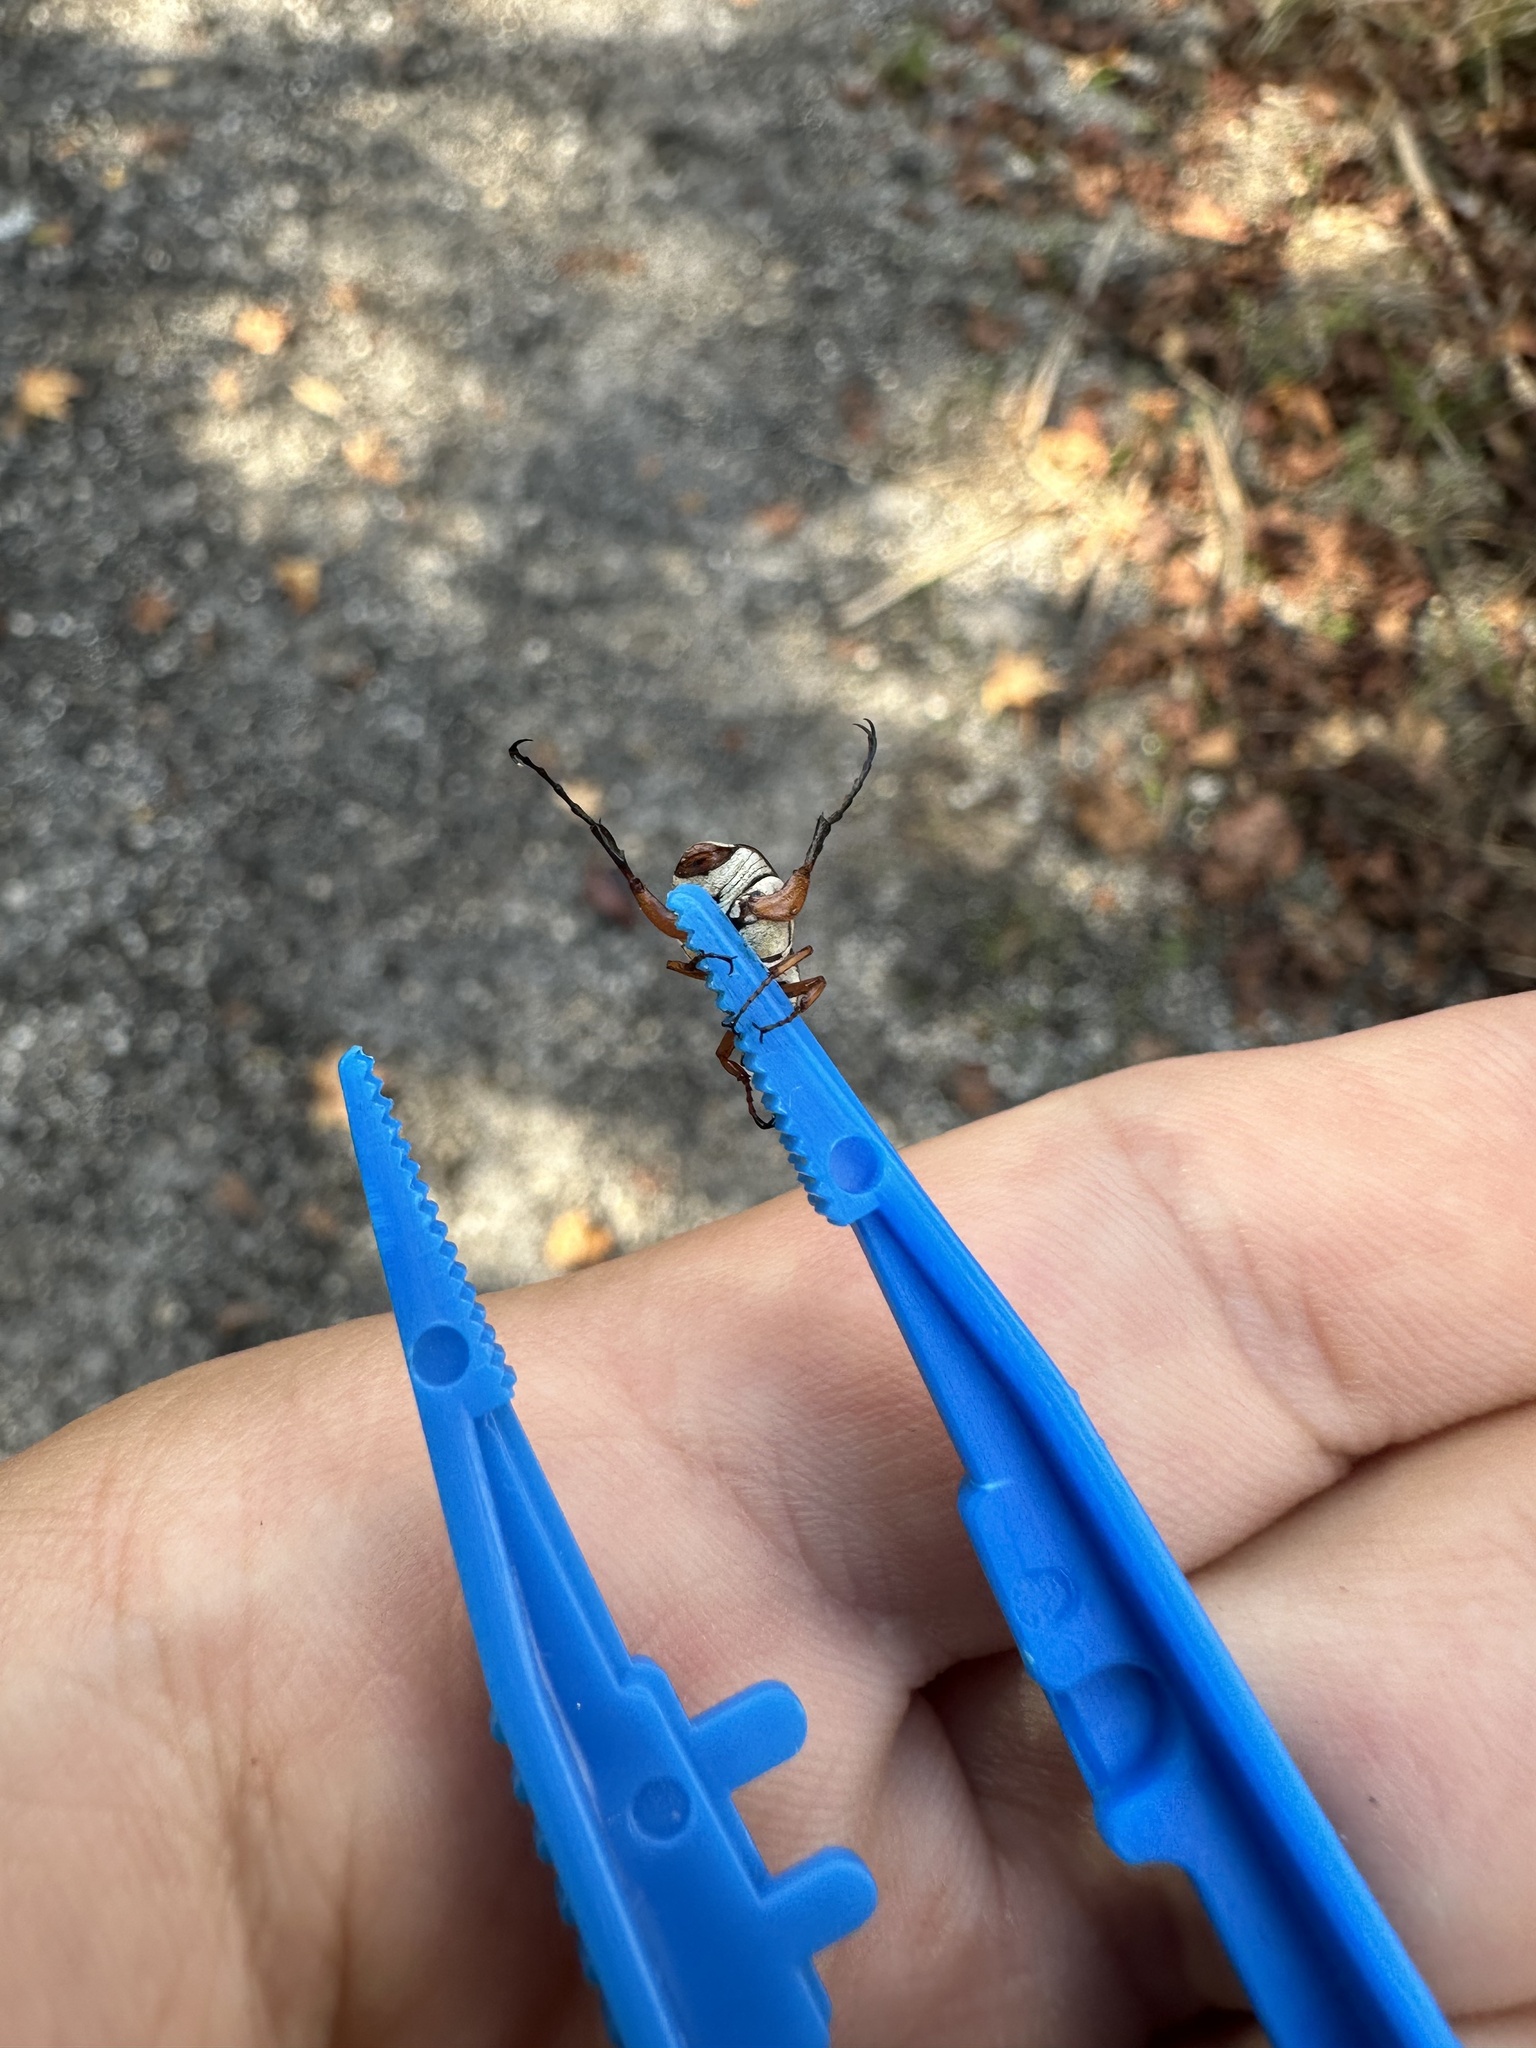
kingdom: Animalia
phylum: Arthropoda
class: Insecta
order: Coleoptera
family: Scarabaeidae
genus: Trigonopeltastes
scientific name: Trigonopeltastes delta
